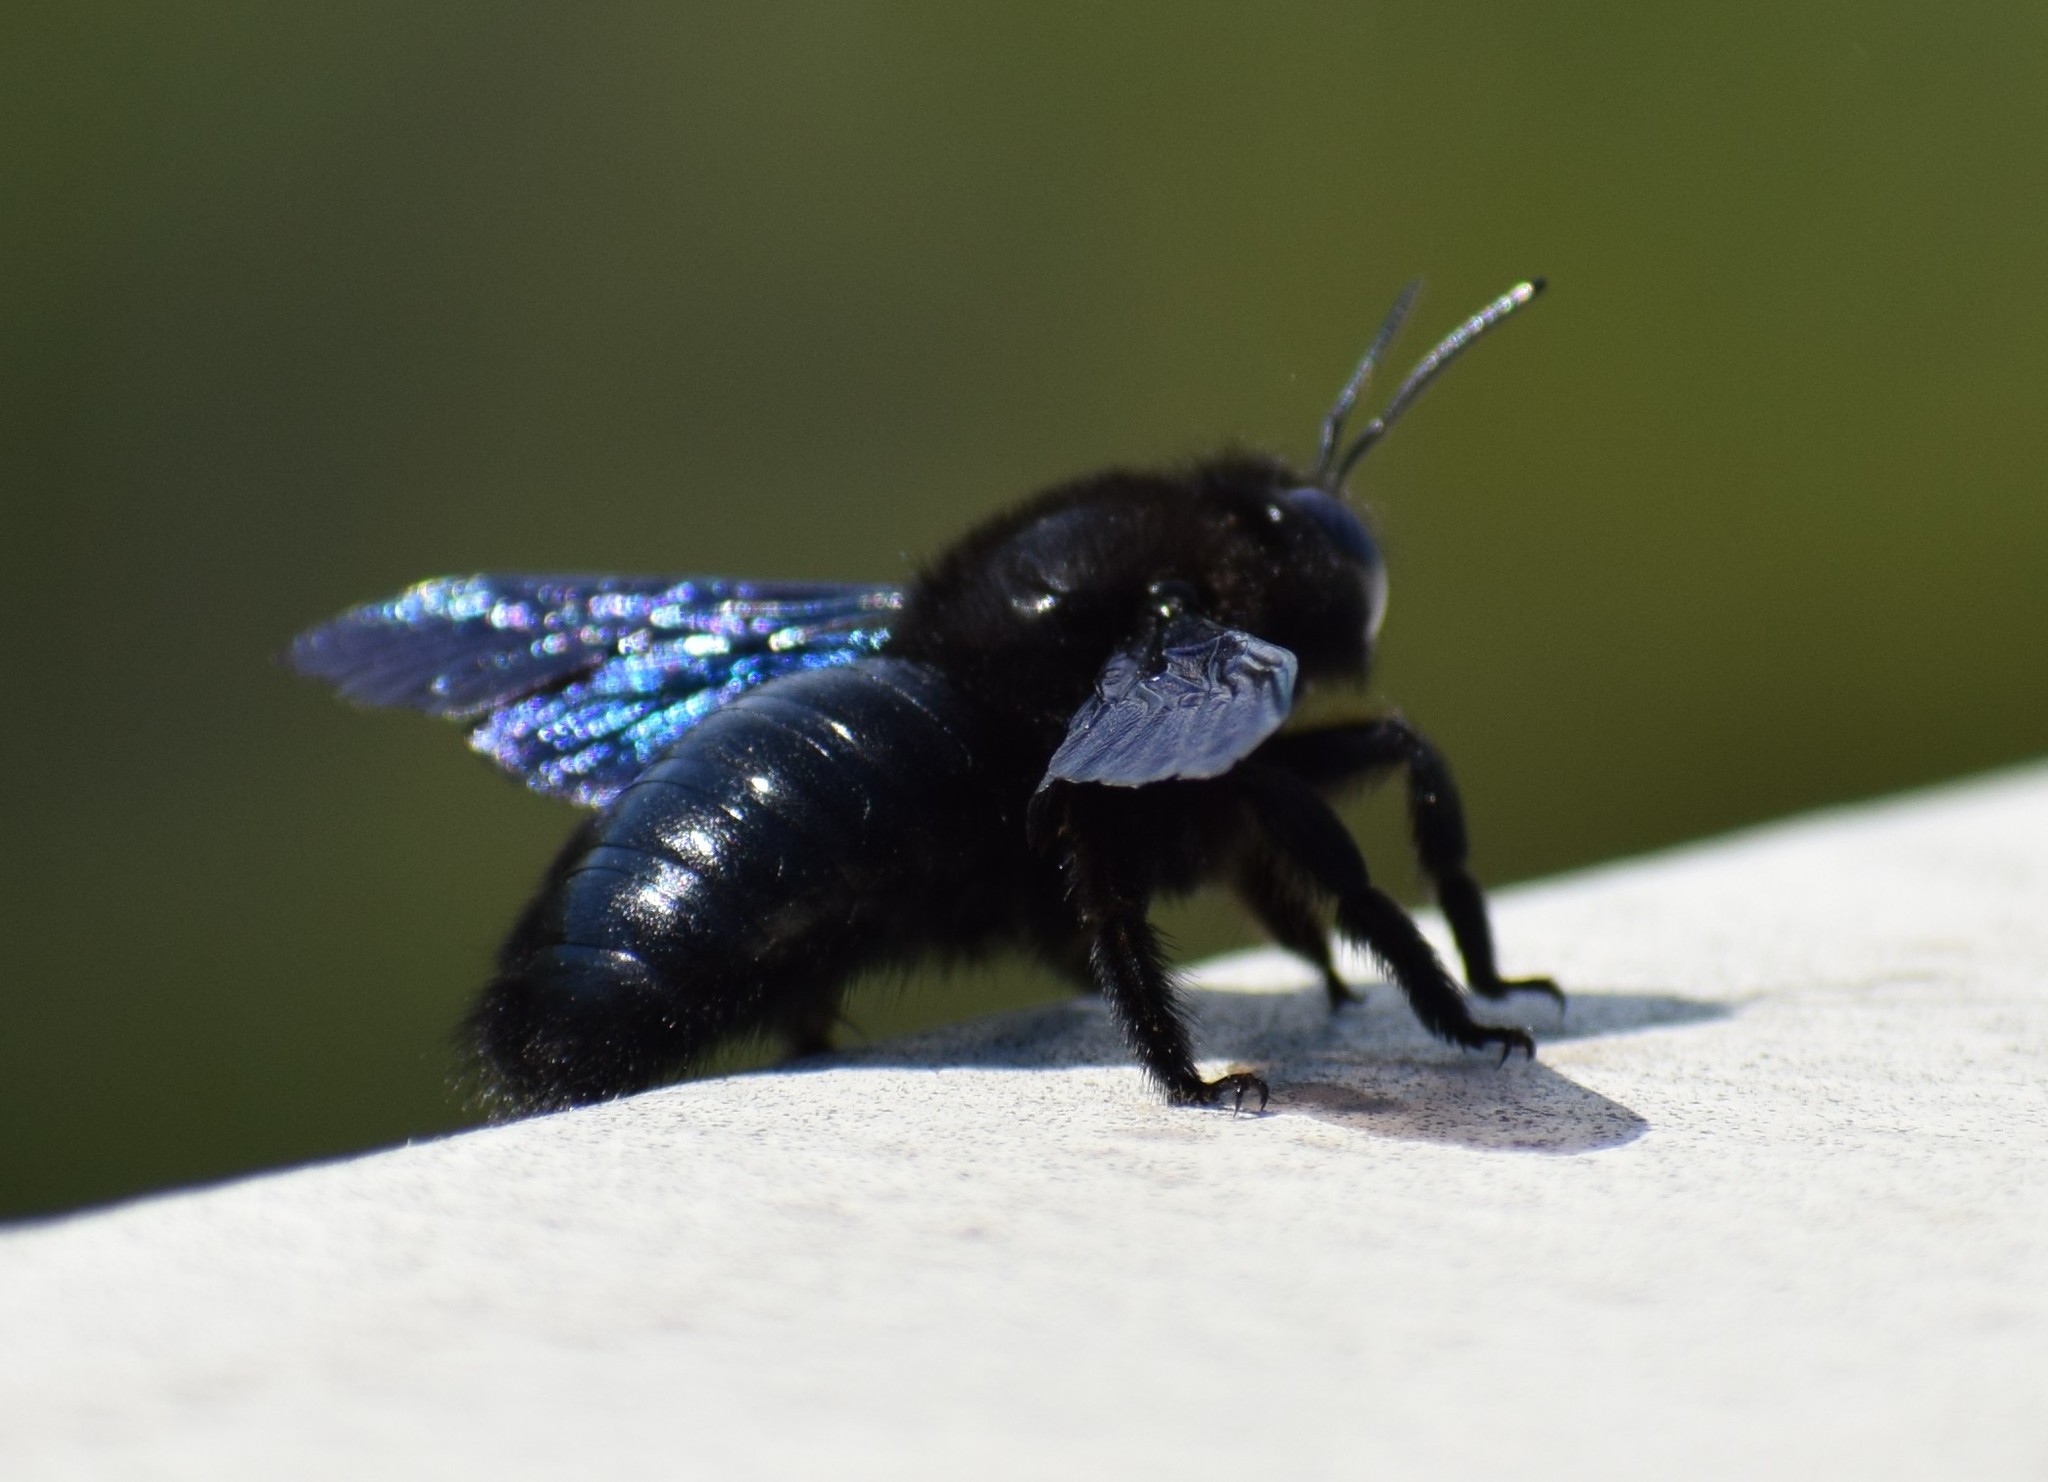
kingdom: Animalia
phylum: Arthropoda
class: Insecta
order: Hymenoptera
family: Apidae
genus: Xylocopa
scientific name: Xylocopa violacea
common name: Violet carpenter bee
